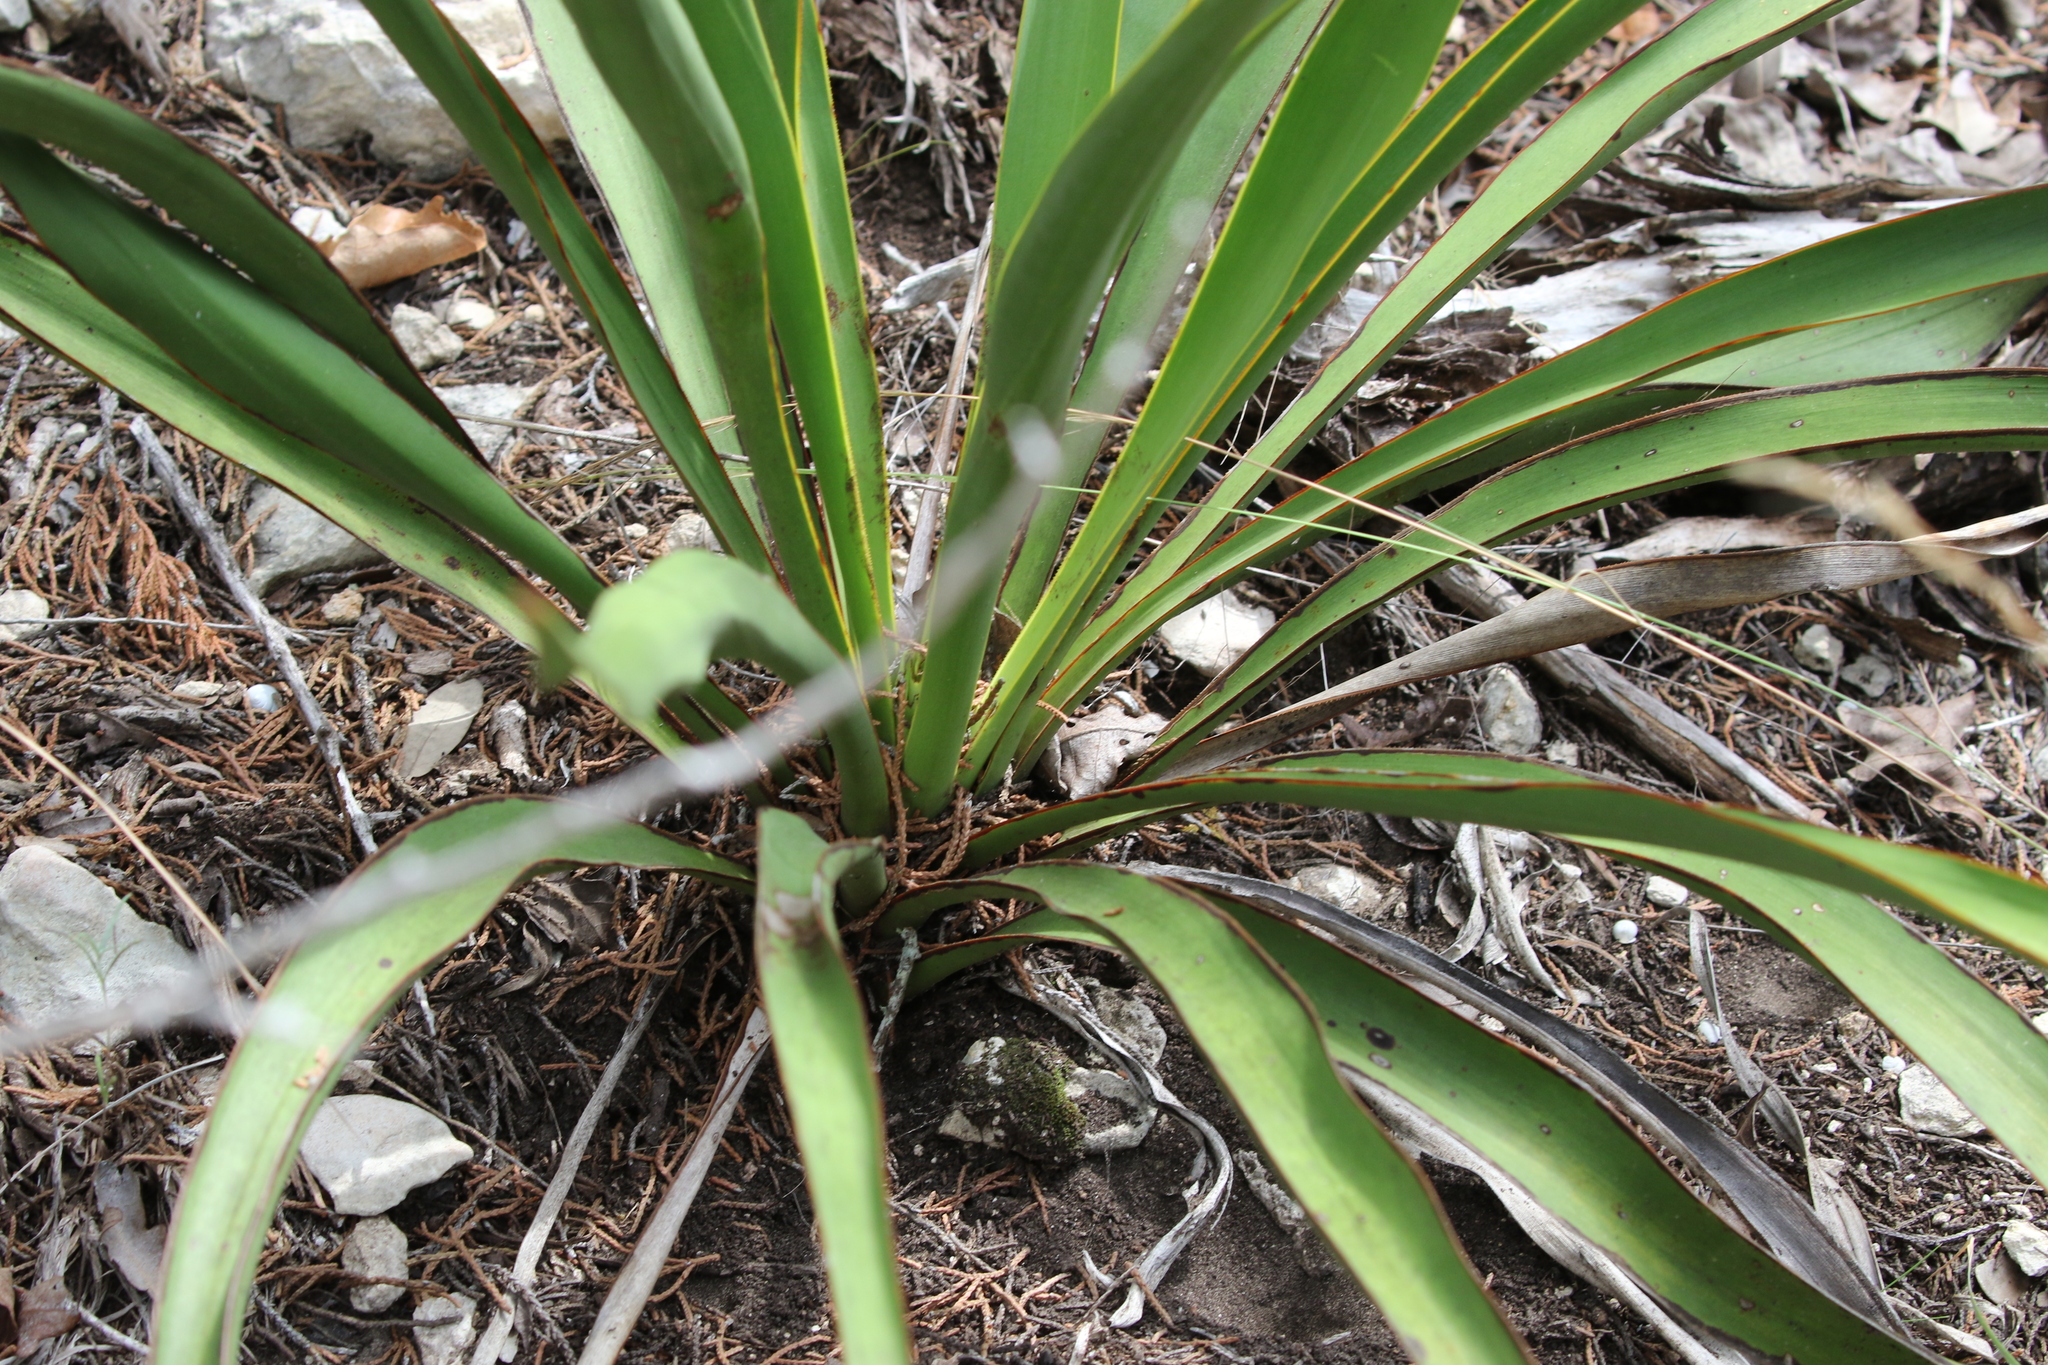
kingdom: Plantae
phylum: Tracheophyta
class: Liliopsida
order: Asparagales
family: Asparagaceae
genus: Yucca
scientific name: Yucca rupicola
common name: Twisted-leaf spanish-dagger
